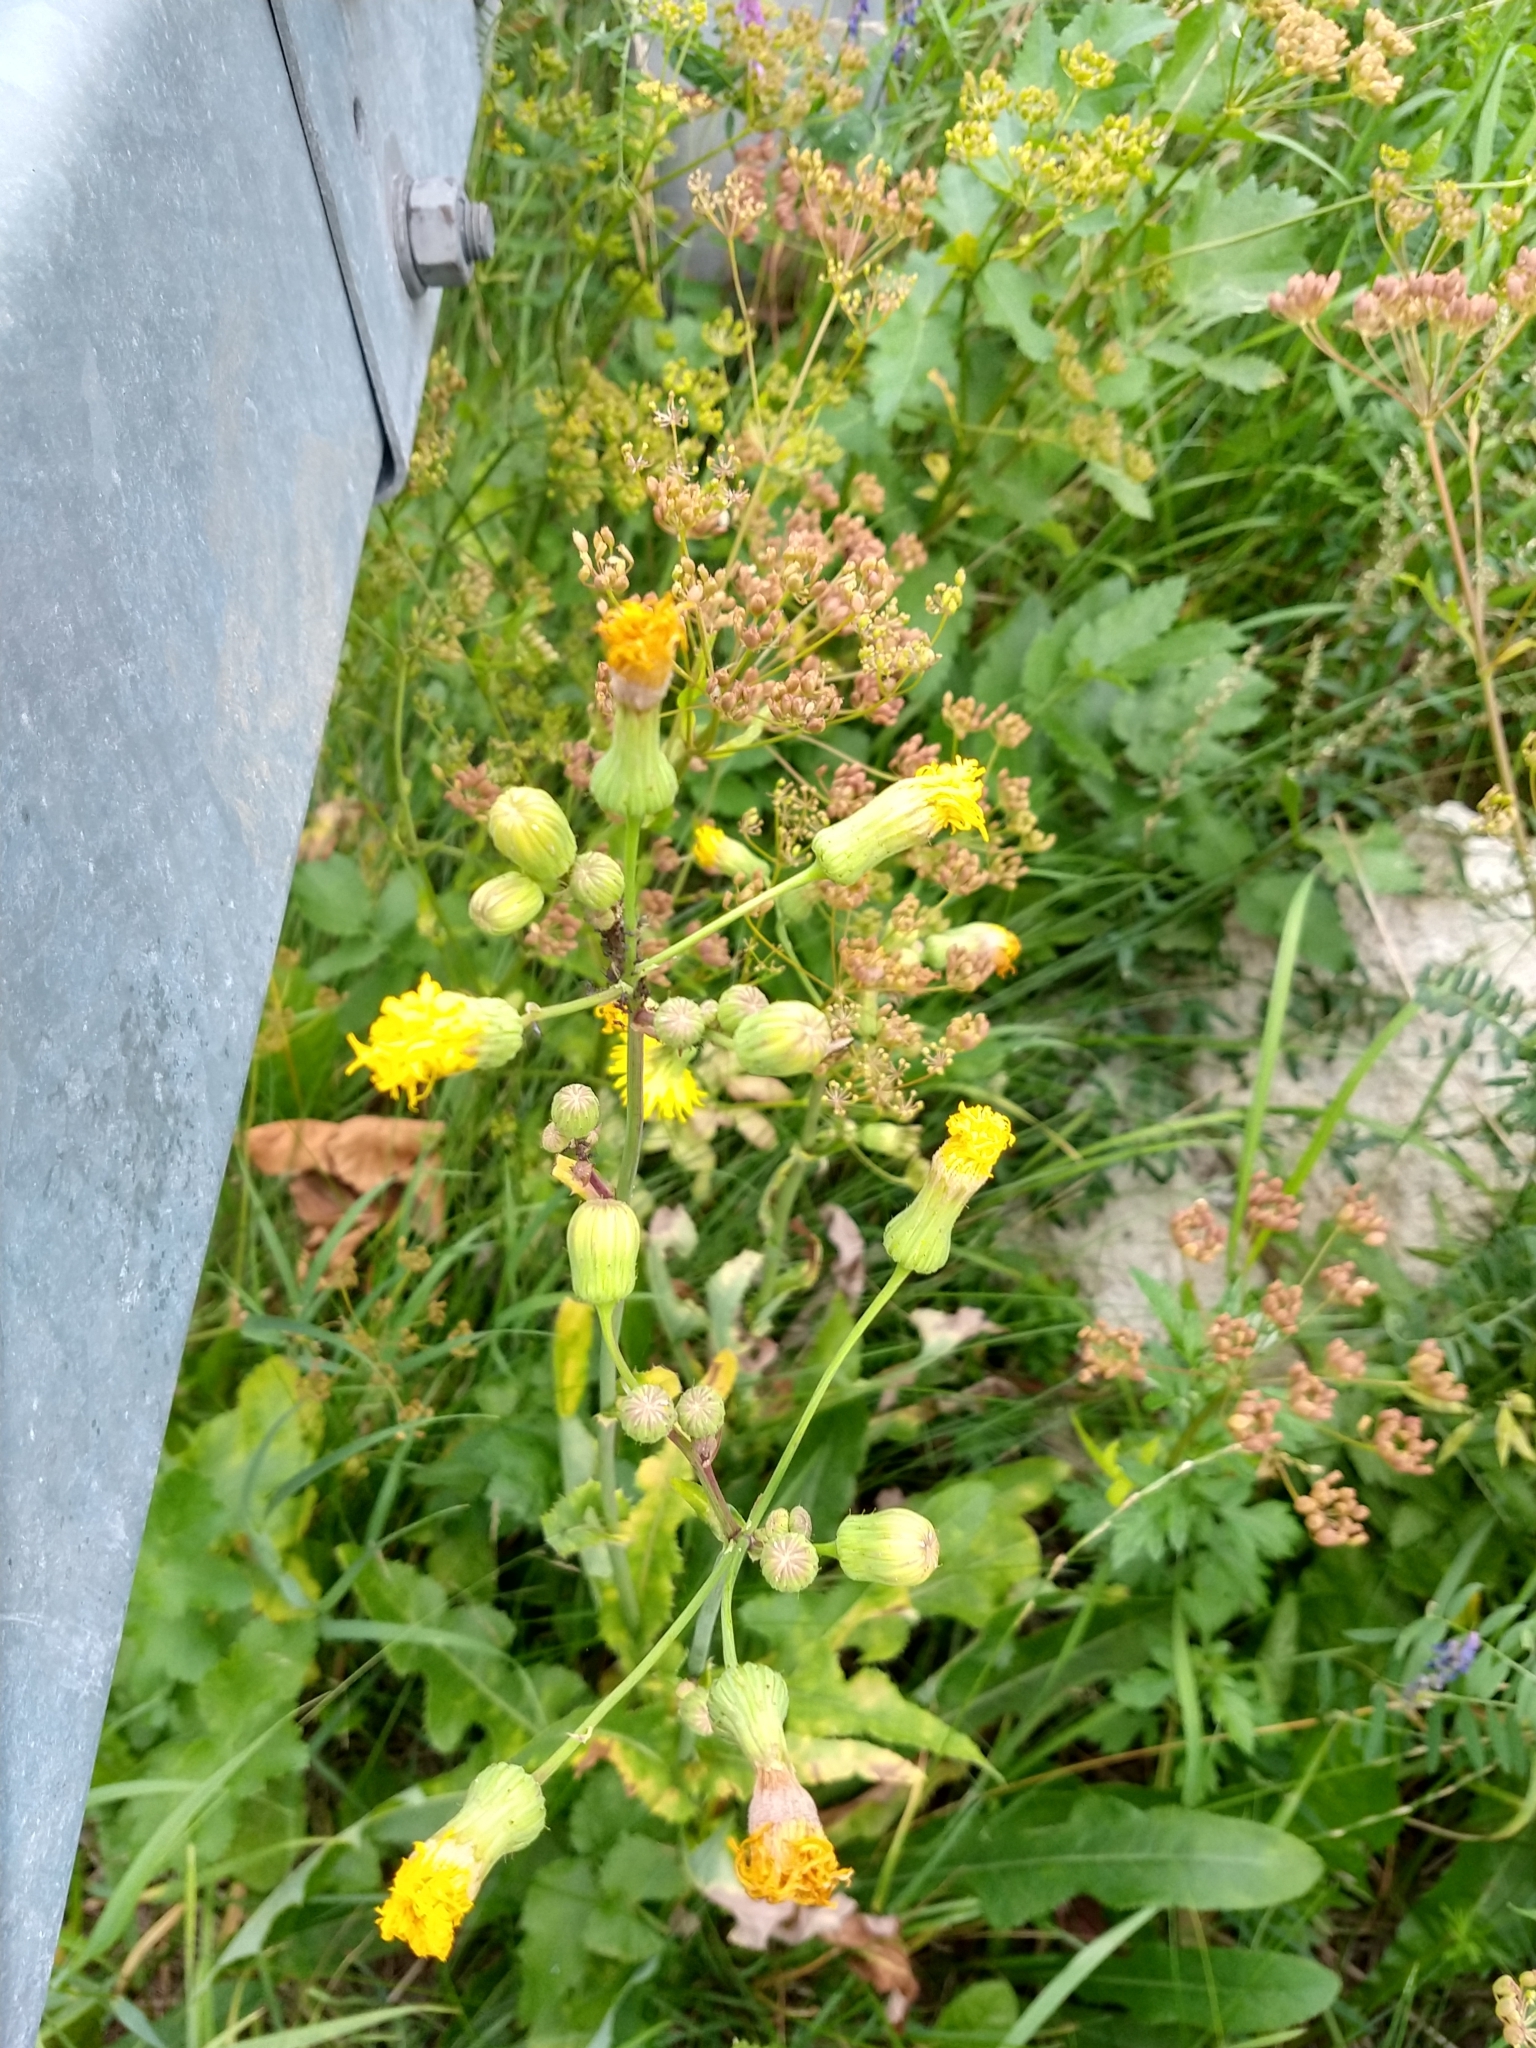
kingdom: Plantae
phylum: Tracheophyta
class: Magnoliopsida
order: Asterales
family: Asteraceae
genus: Sonchus
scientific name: Sonchus arvensis
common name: Perennial sow-thistle
